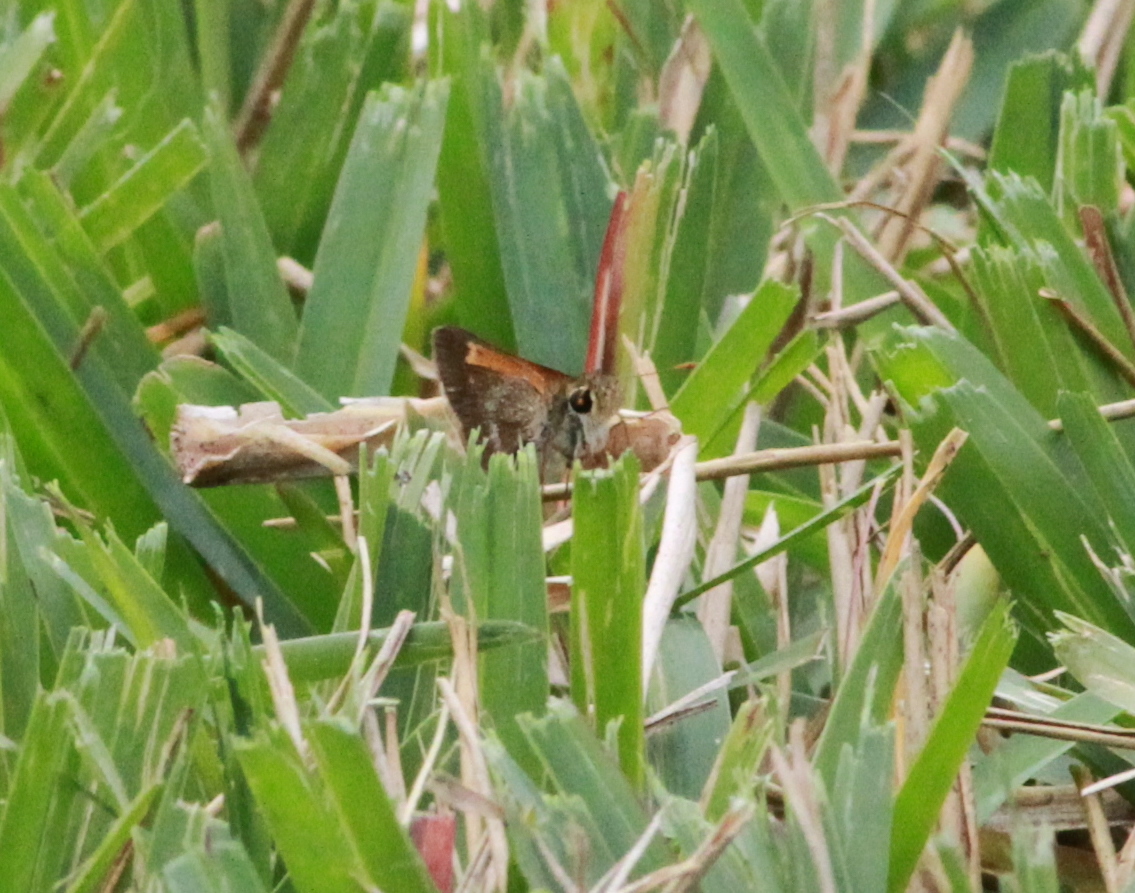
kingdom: Animalia
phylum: Arthropoda
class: Insecta
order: Lepidoptera
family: Hesperiidae
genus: Polites
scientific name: Polites baracoa
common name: Baracoa skipper
